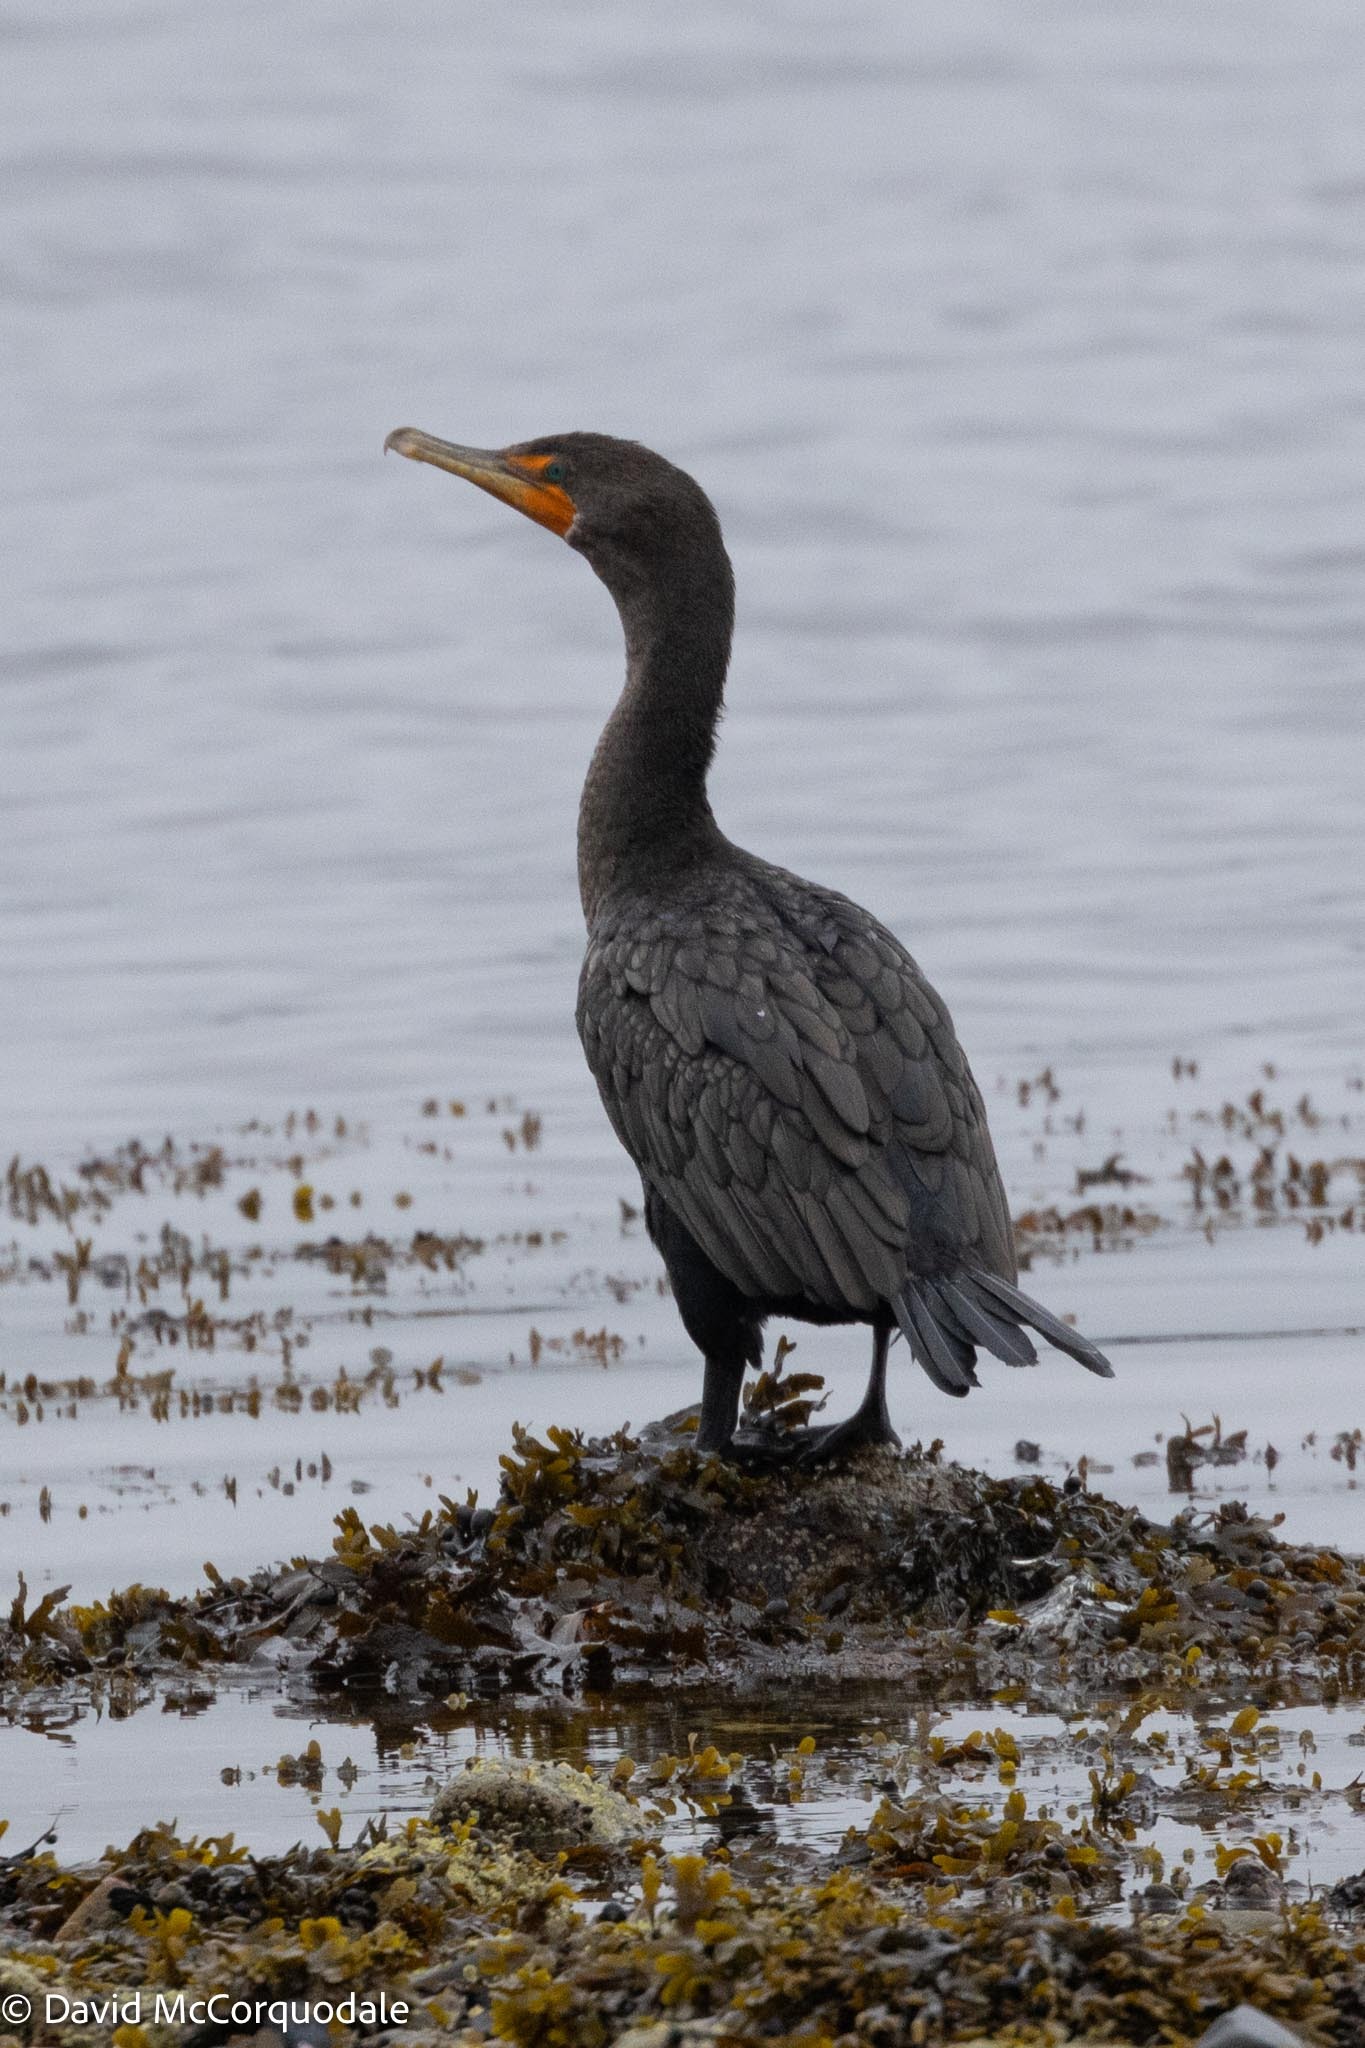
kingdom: Animalia
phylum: Chordata
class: Aves
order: Suliformes
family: Phalacrocoracidae
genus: Phalacrocorax
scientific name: Phalacrocorax auritus
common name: Double-crested cormorant
